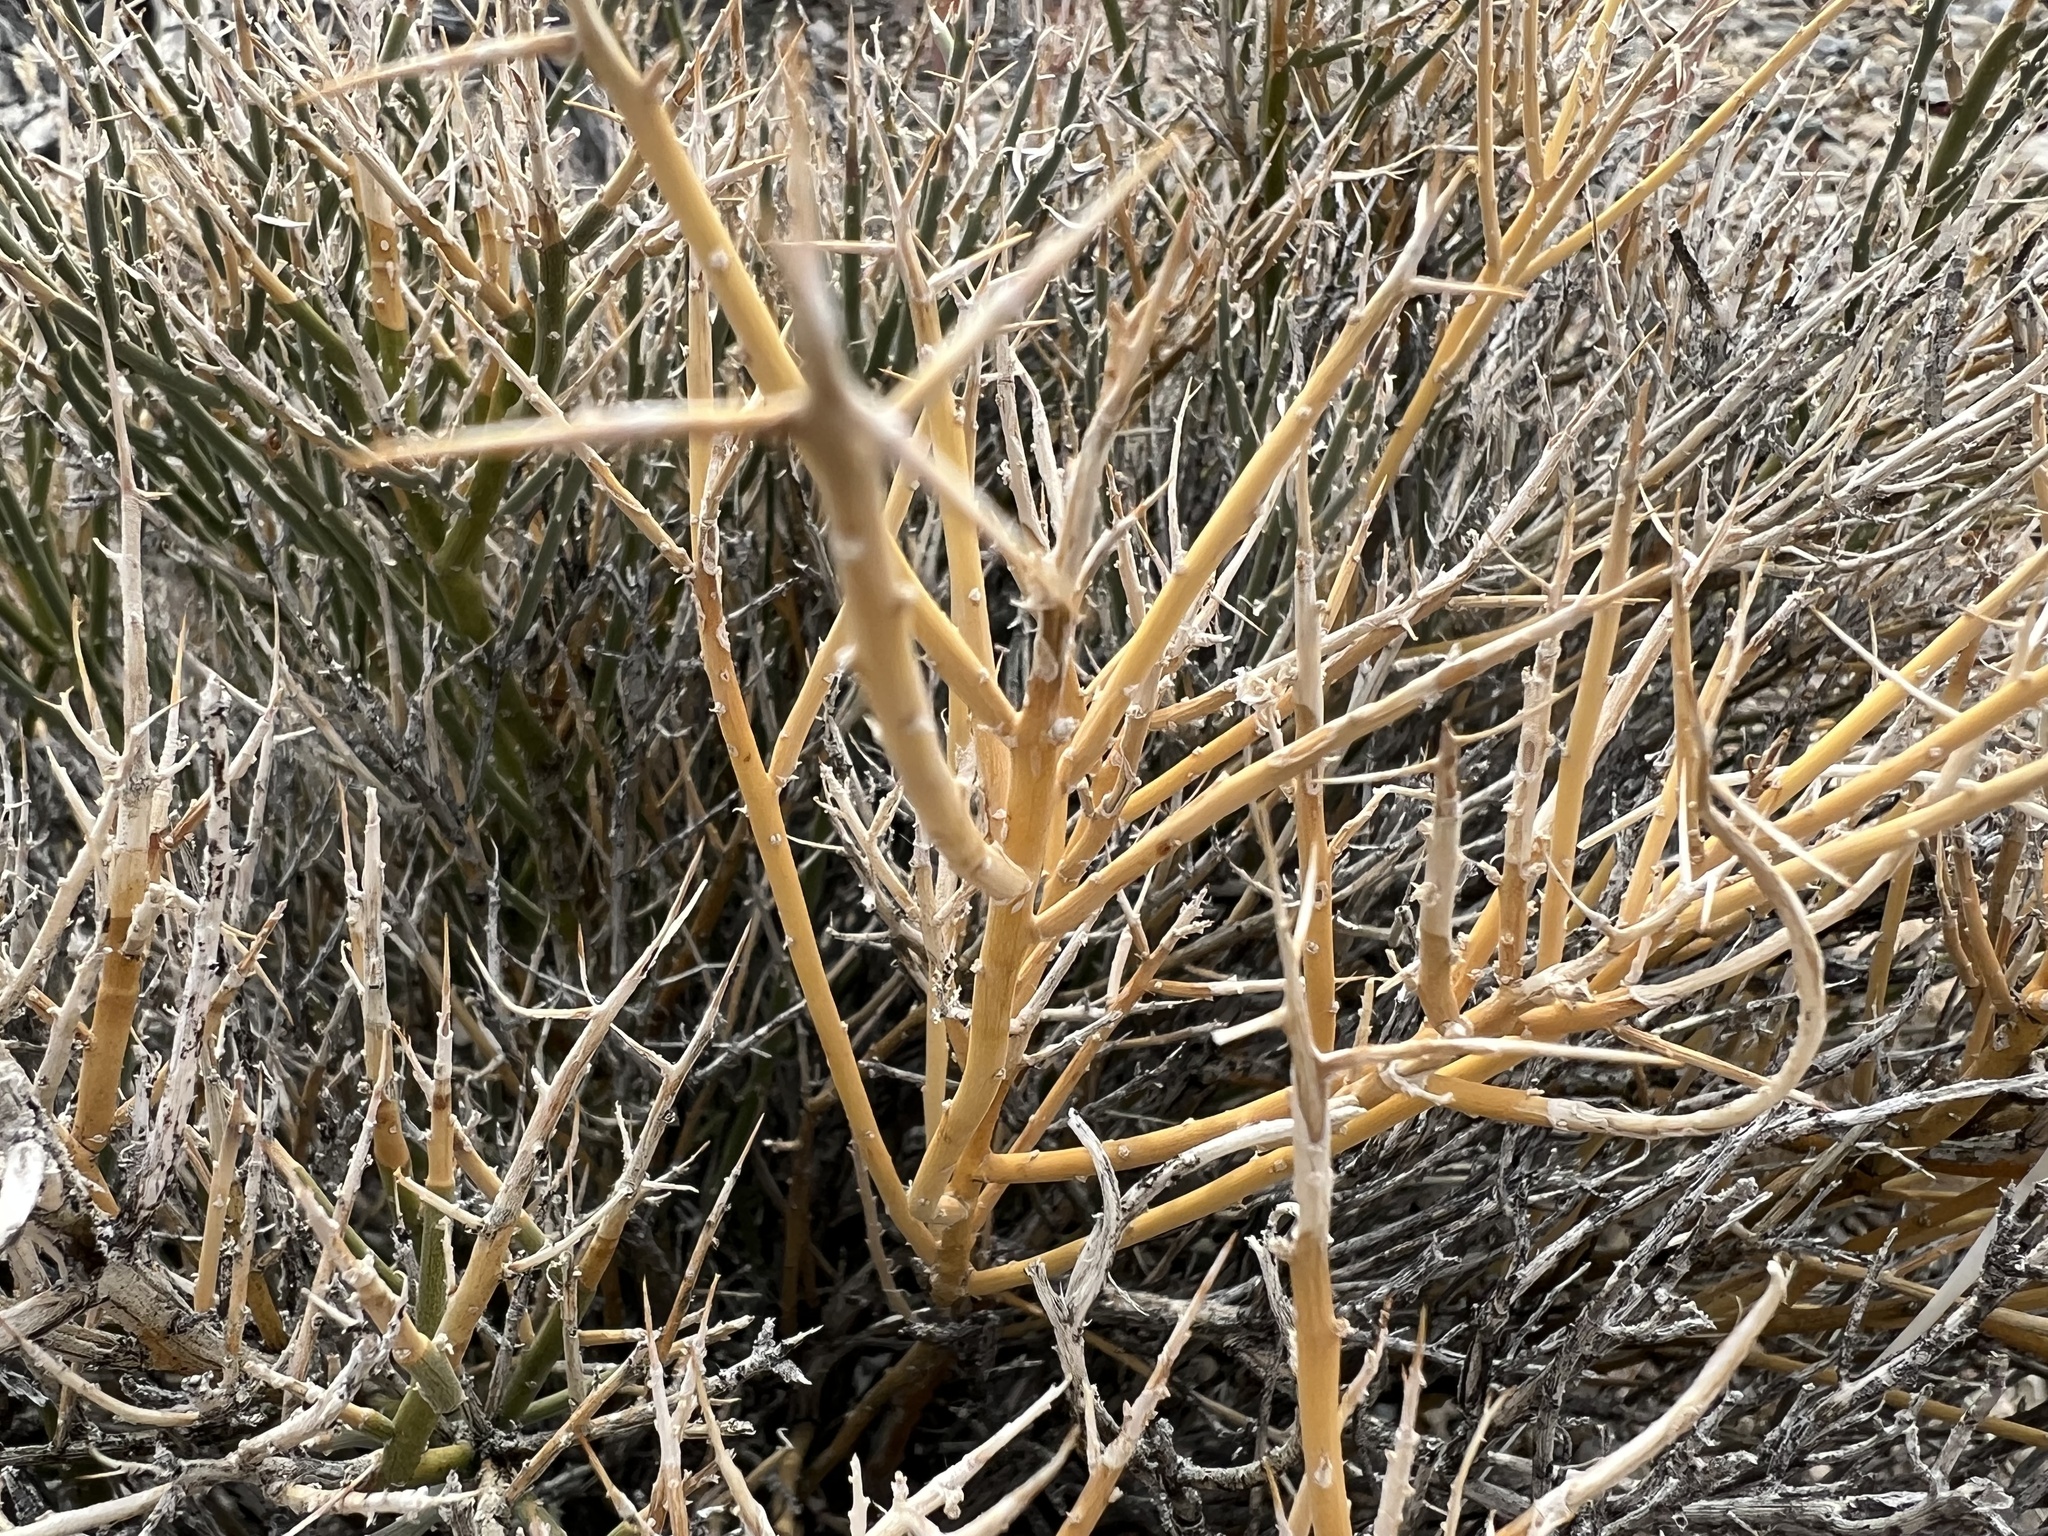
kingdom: Plantae
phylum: Tracheophyta
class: Magnoliopsida
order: Lamiales
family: Oleaceae
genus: Menodora
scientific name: Menodora spinescens
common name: Spiny menodora
